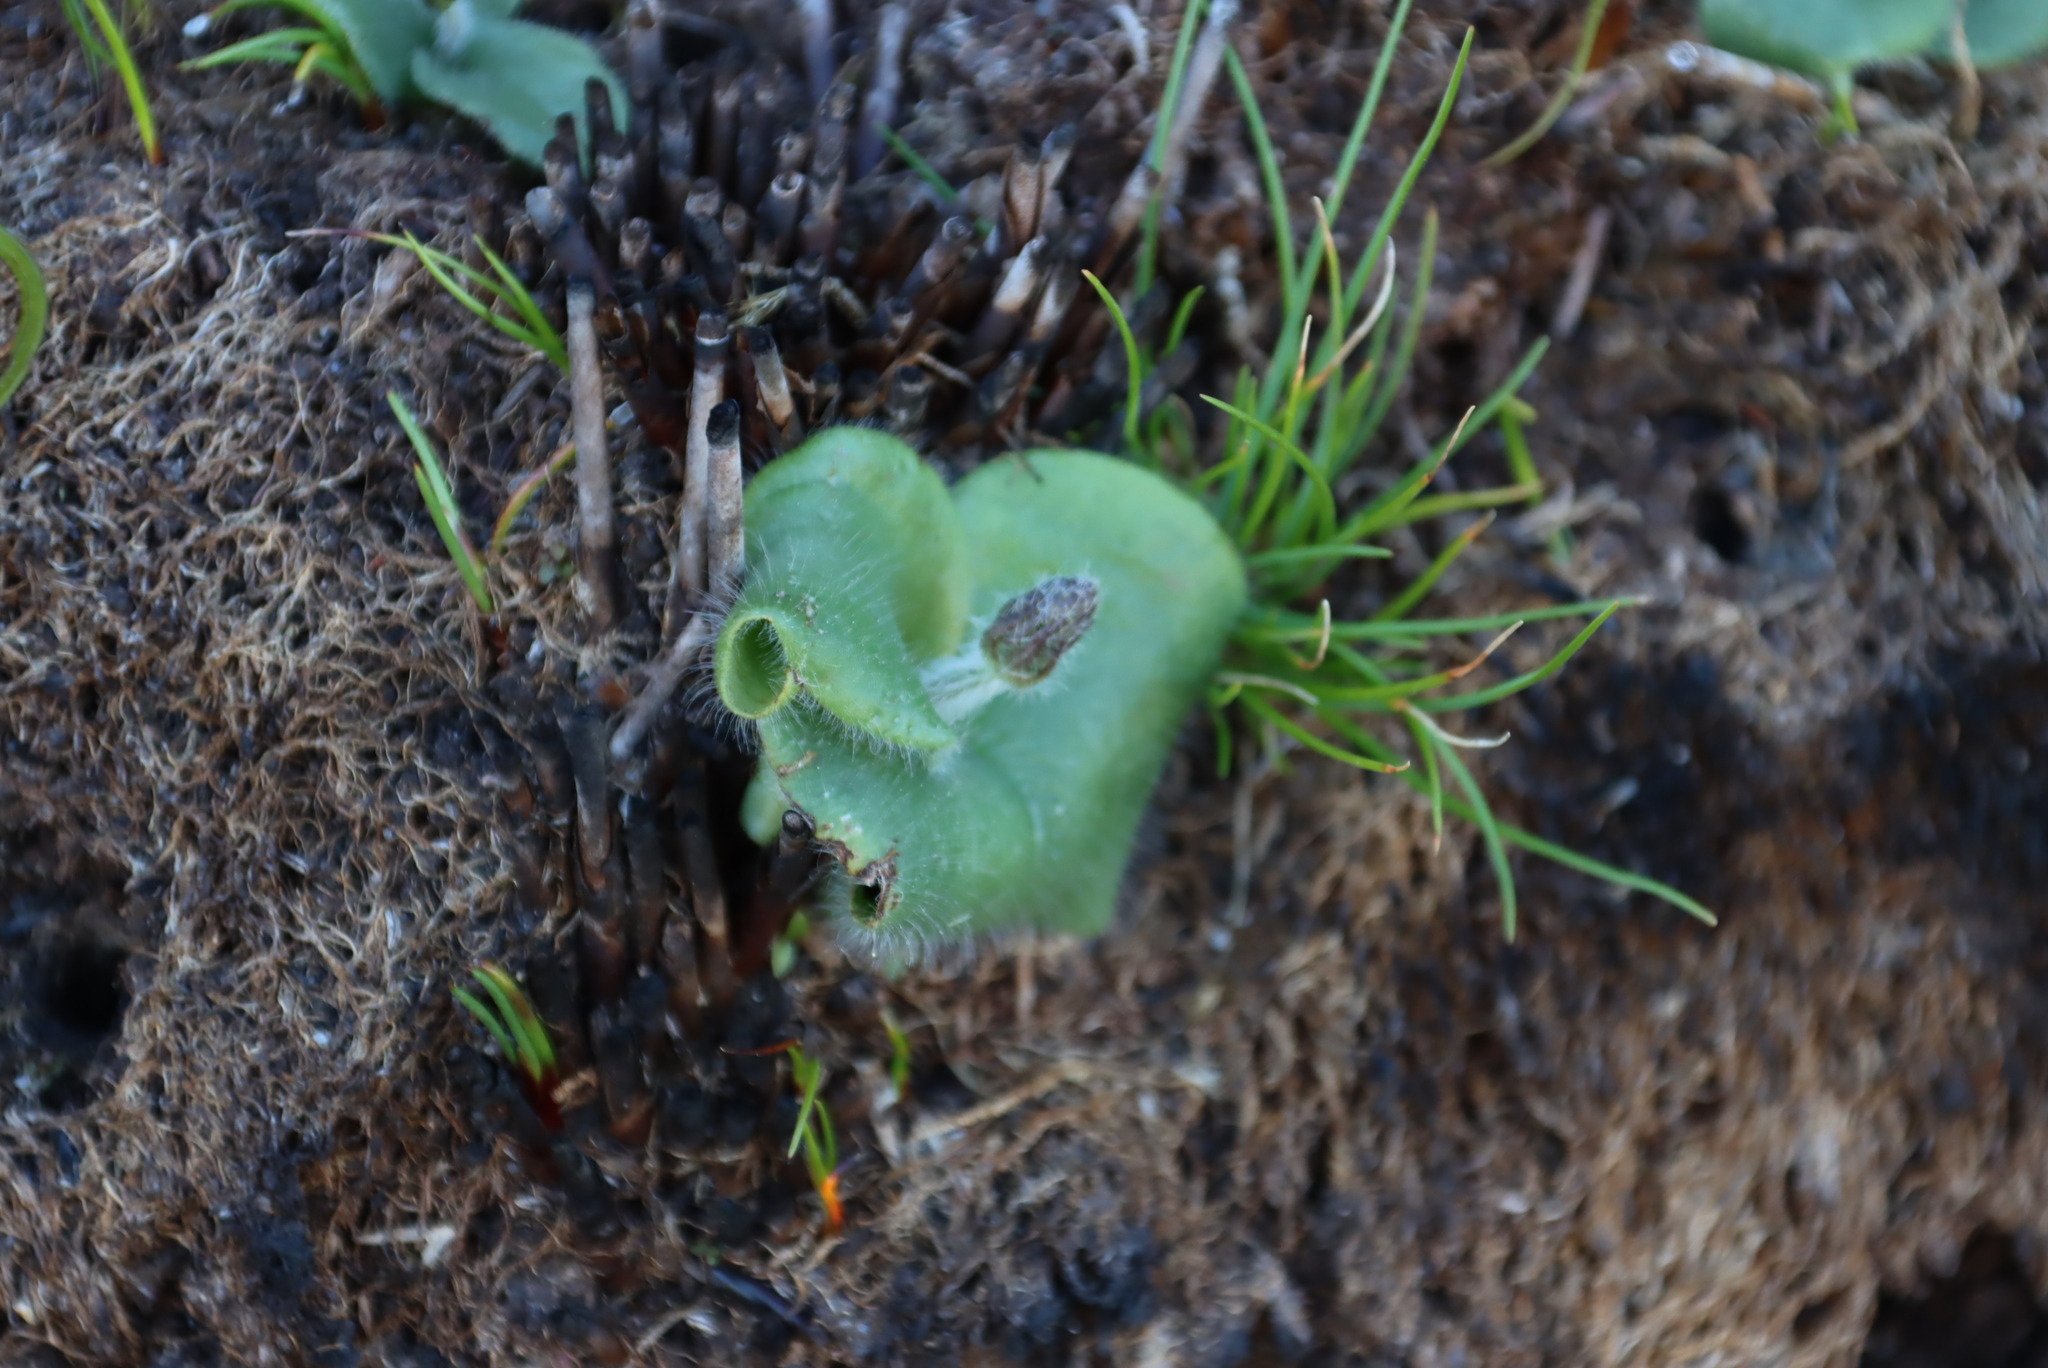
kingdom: Plantae
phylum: Tracheophyta
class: Liliopsida
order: Asparagales
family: Orchidaceae
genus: Holothrix
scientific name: Holothrix condensata
